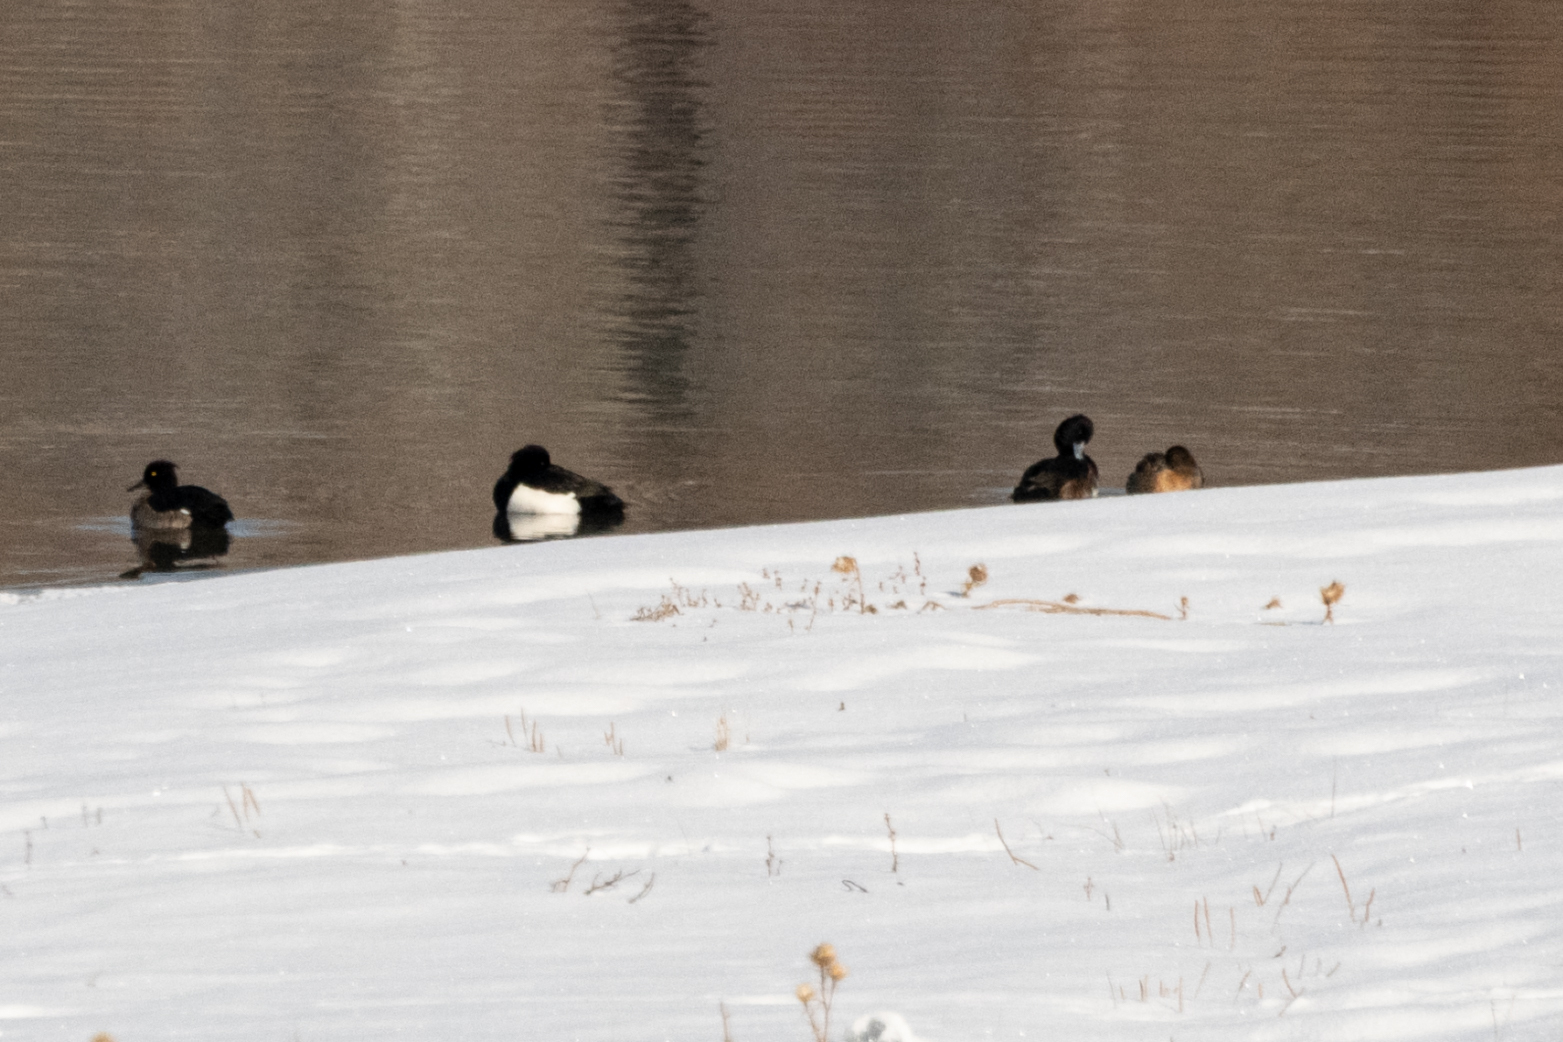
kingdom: Animalia
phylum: Chordata
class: Aves
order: Anseriformes
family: Anatidae
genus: Aythya
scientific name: Aythya fuligula
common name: Tufted duck
